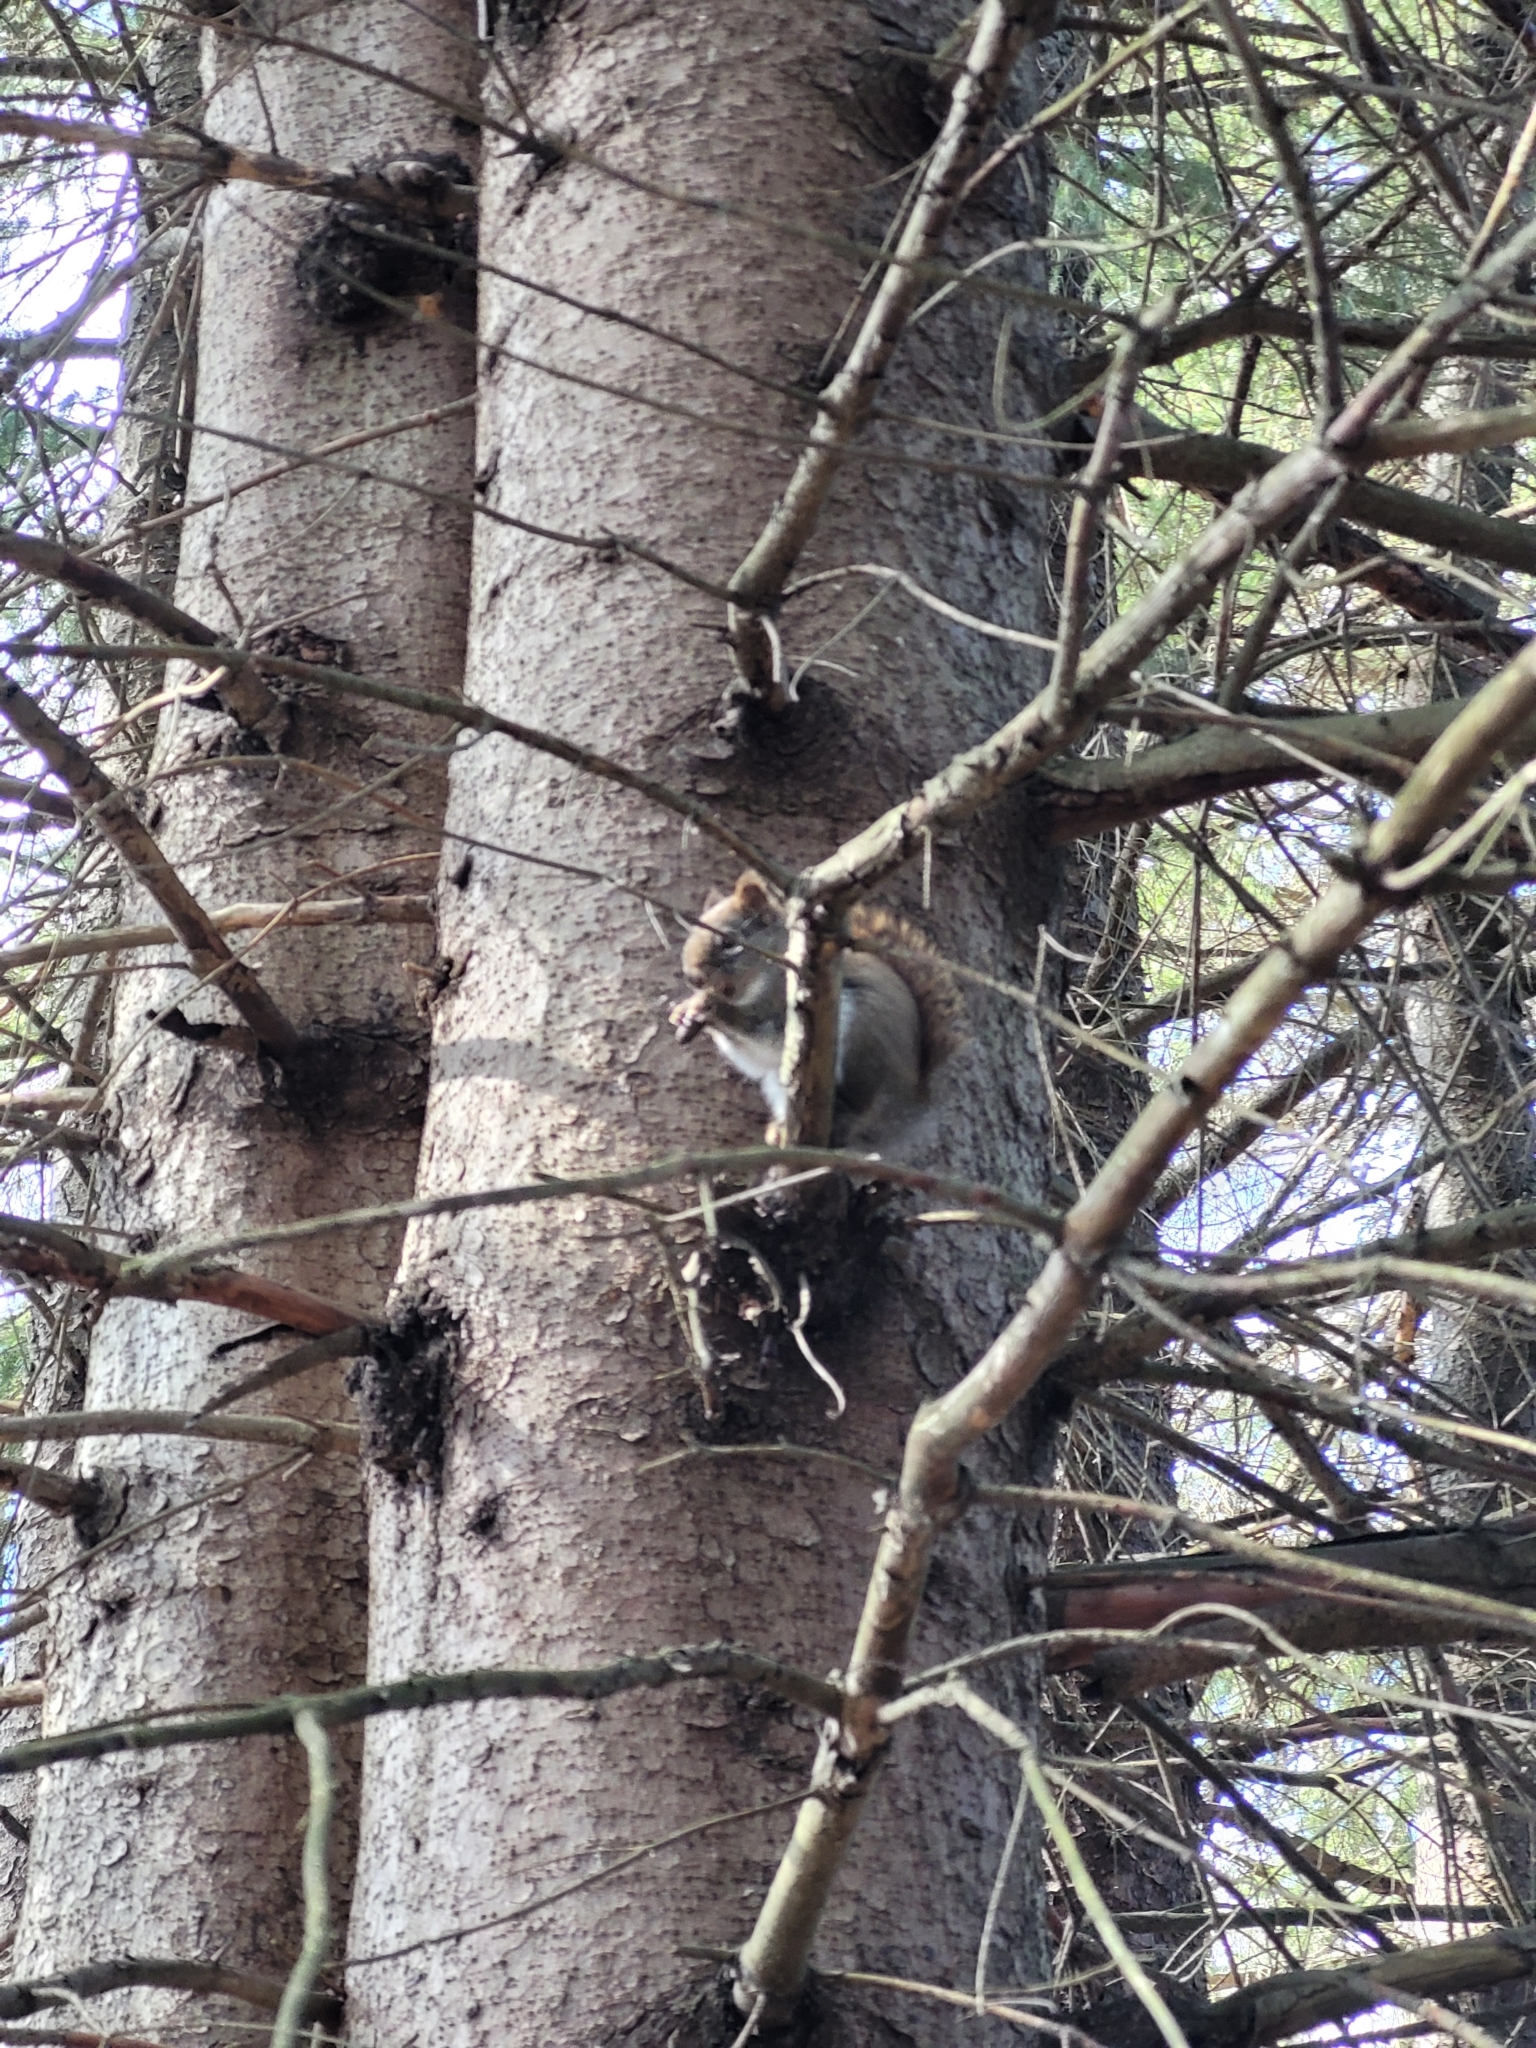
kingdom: Animalia
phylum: Chordata
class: Mammalia
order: Rodentia
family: Sciuridae
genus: Tamiasciurus
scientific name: Tamiasciurus hudsonicus
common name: Red squirrel
